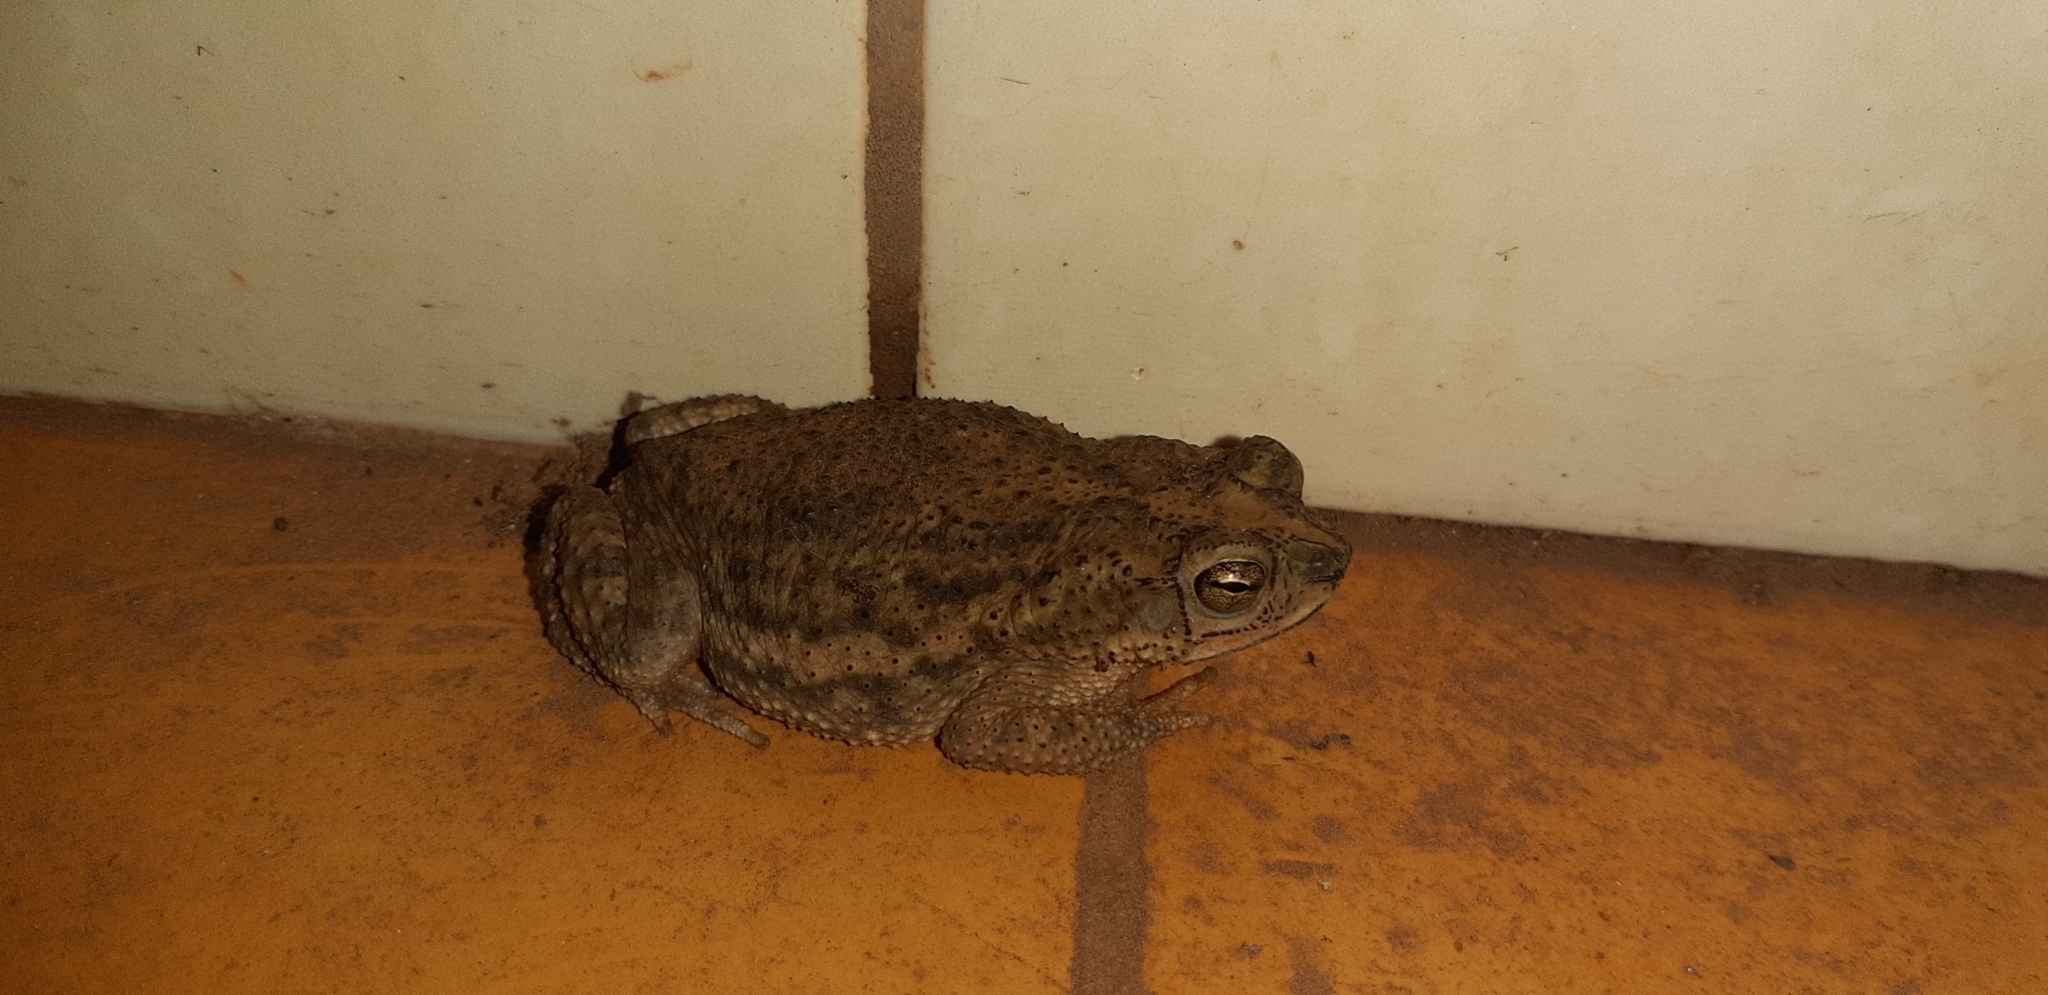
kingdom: Animalia
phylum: Chordata
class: Amphibia
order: Anura
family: Bufonidae
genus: Rhinella
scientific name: Rhinella major
